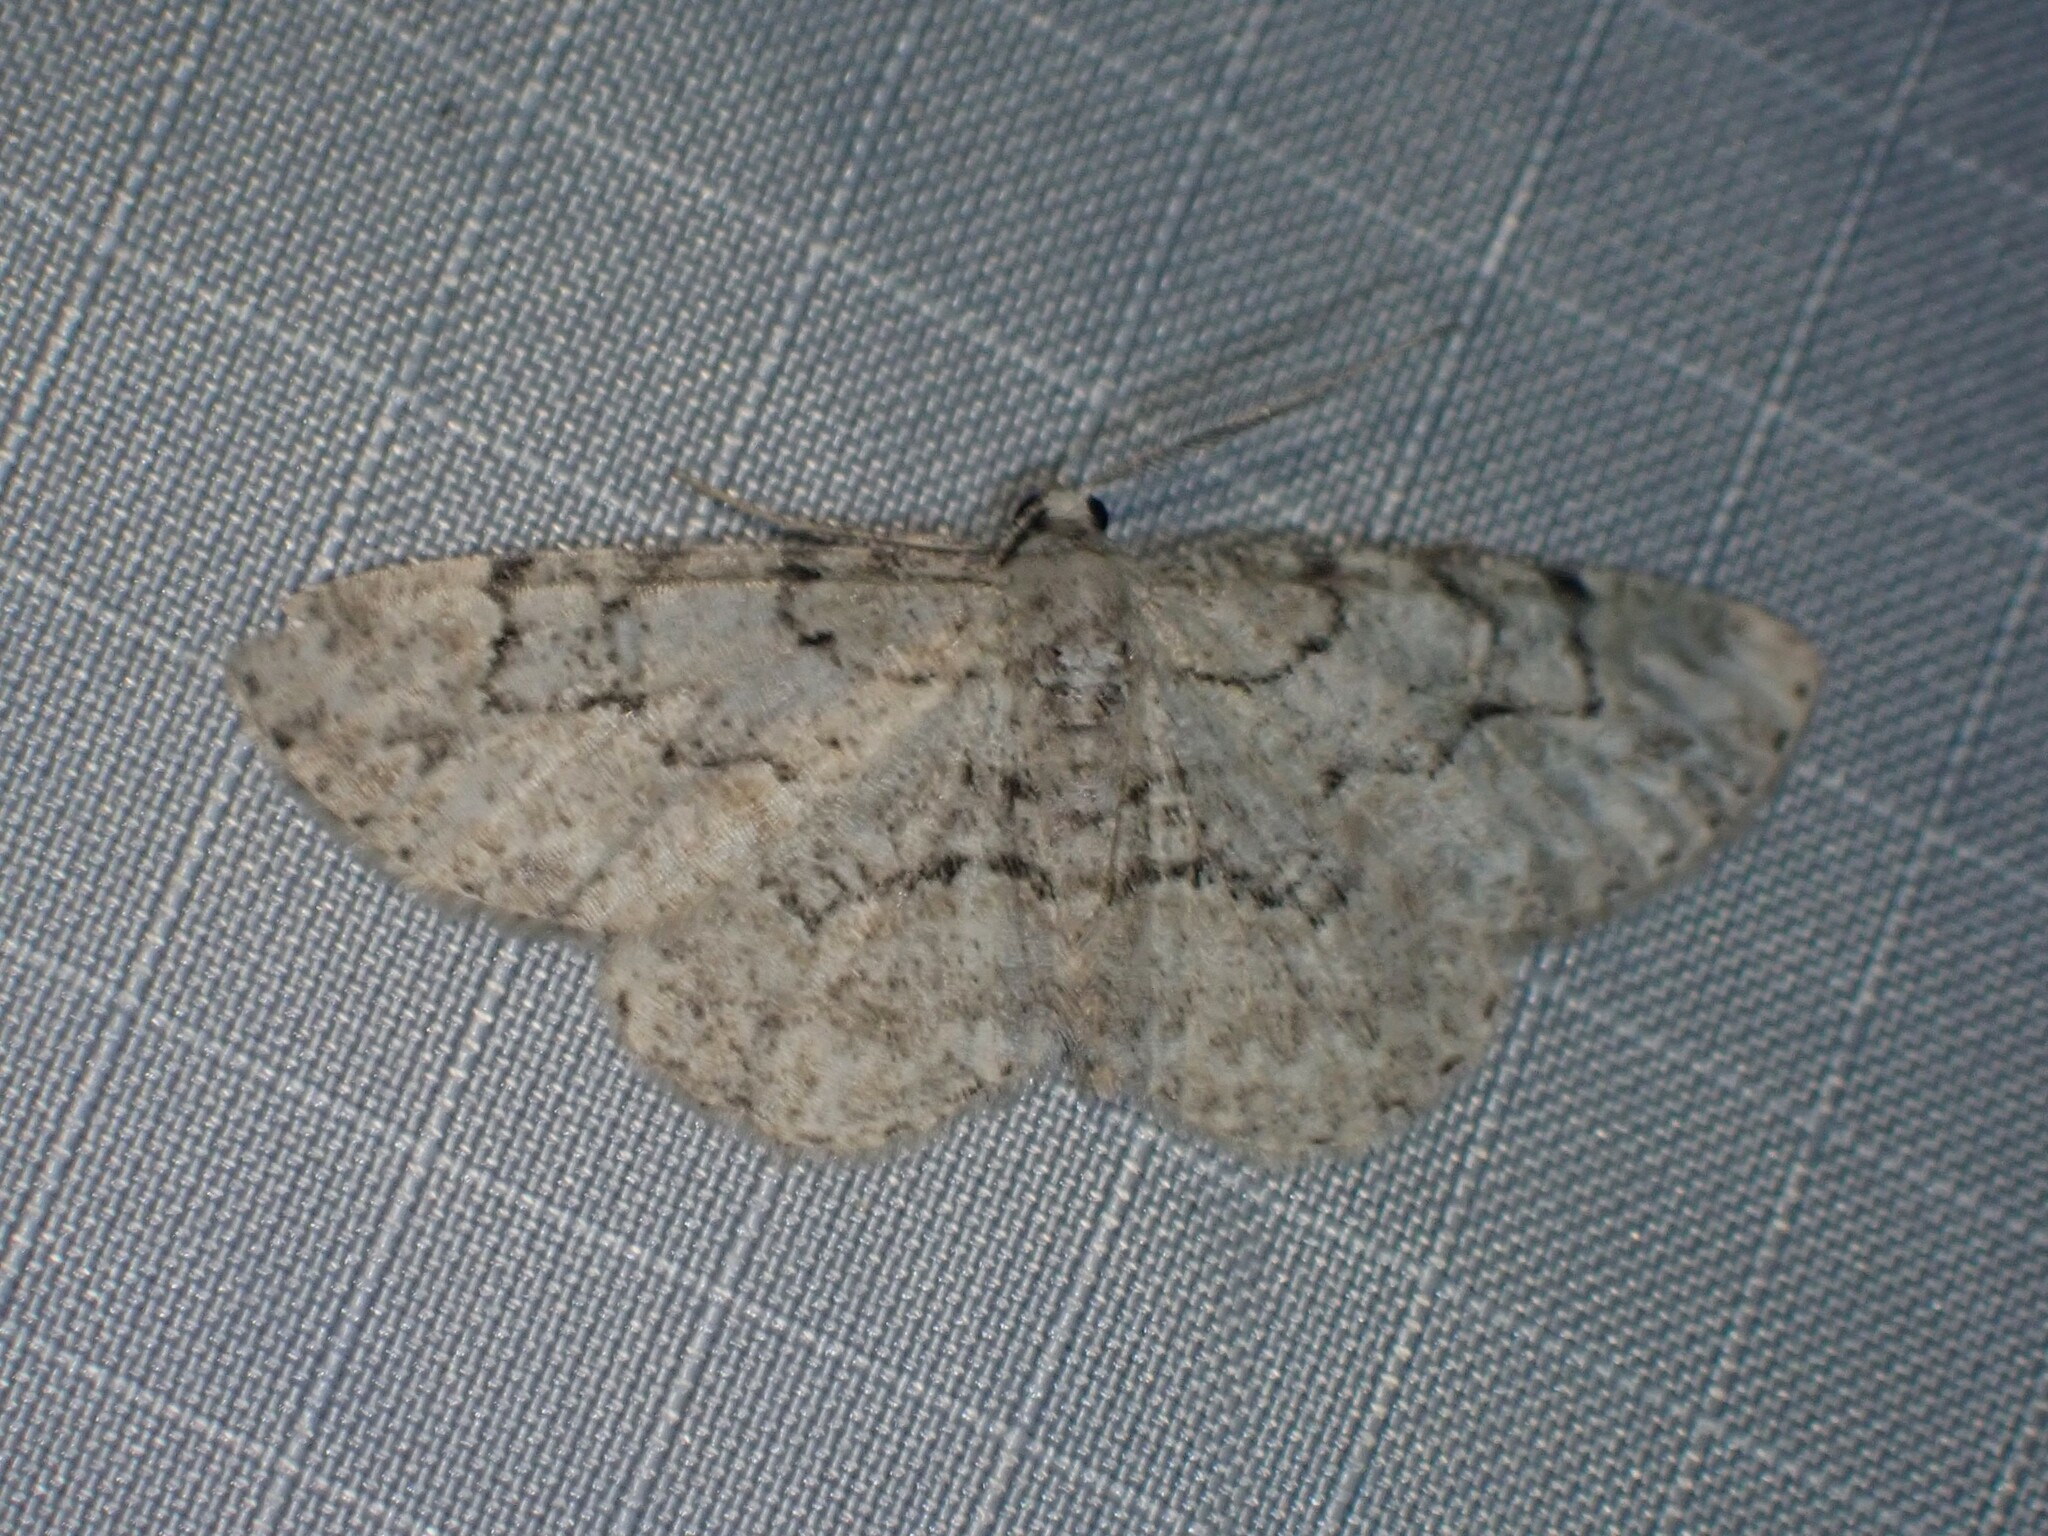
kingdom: Animalia
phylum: Arthropoda
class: Insecta
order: Lepidoptera
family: Geometridae
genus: Iridopsis
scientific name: Iridopsis ephyraria
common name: Pale-winged gray
